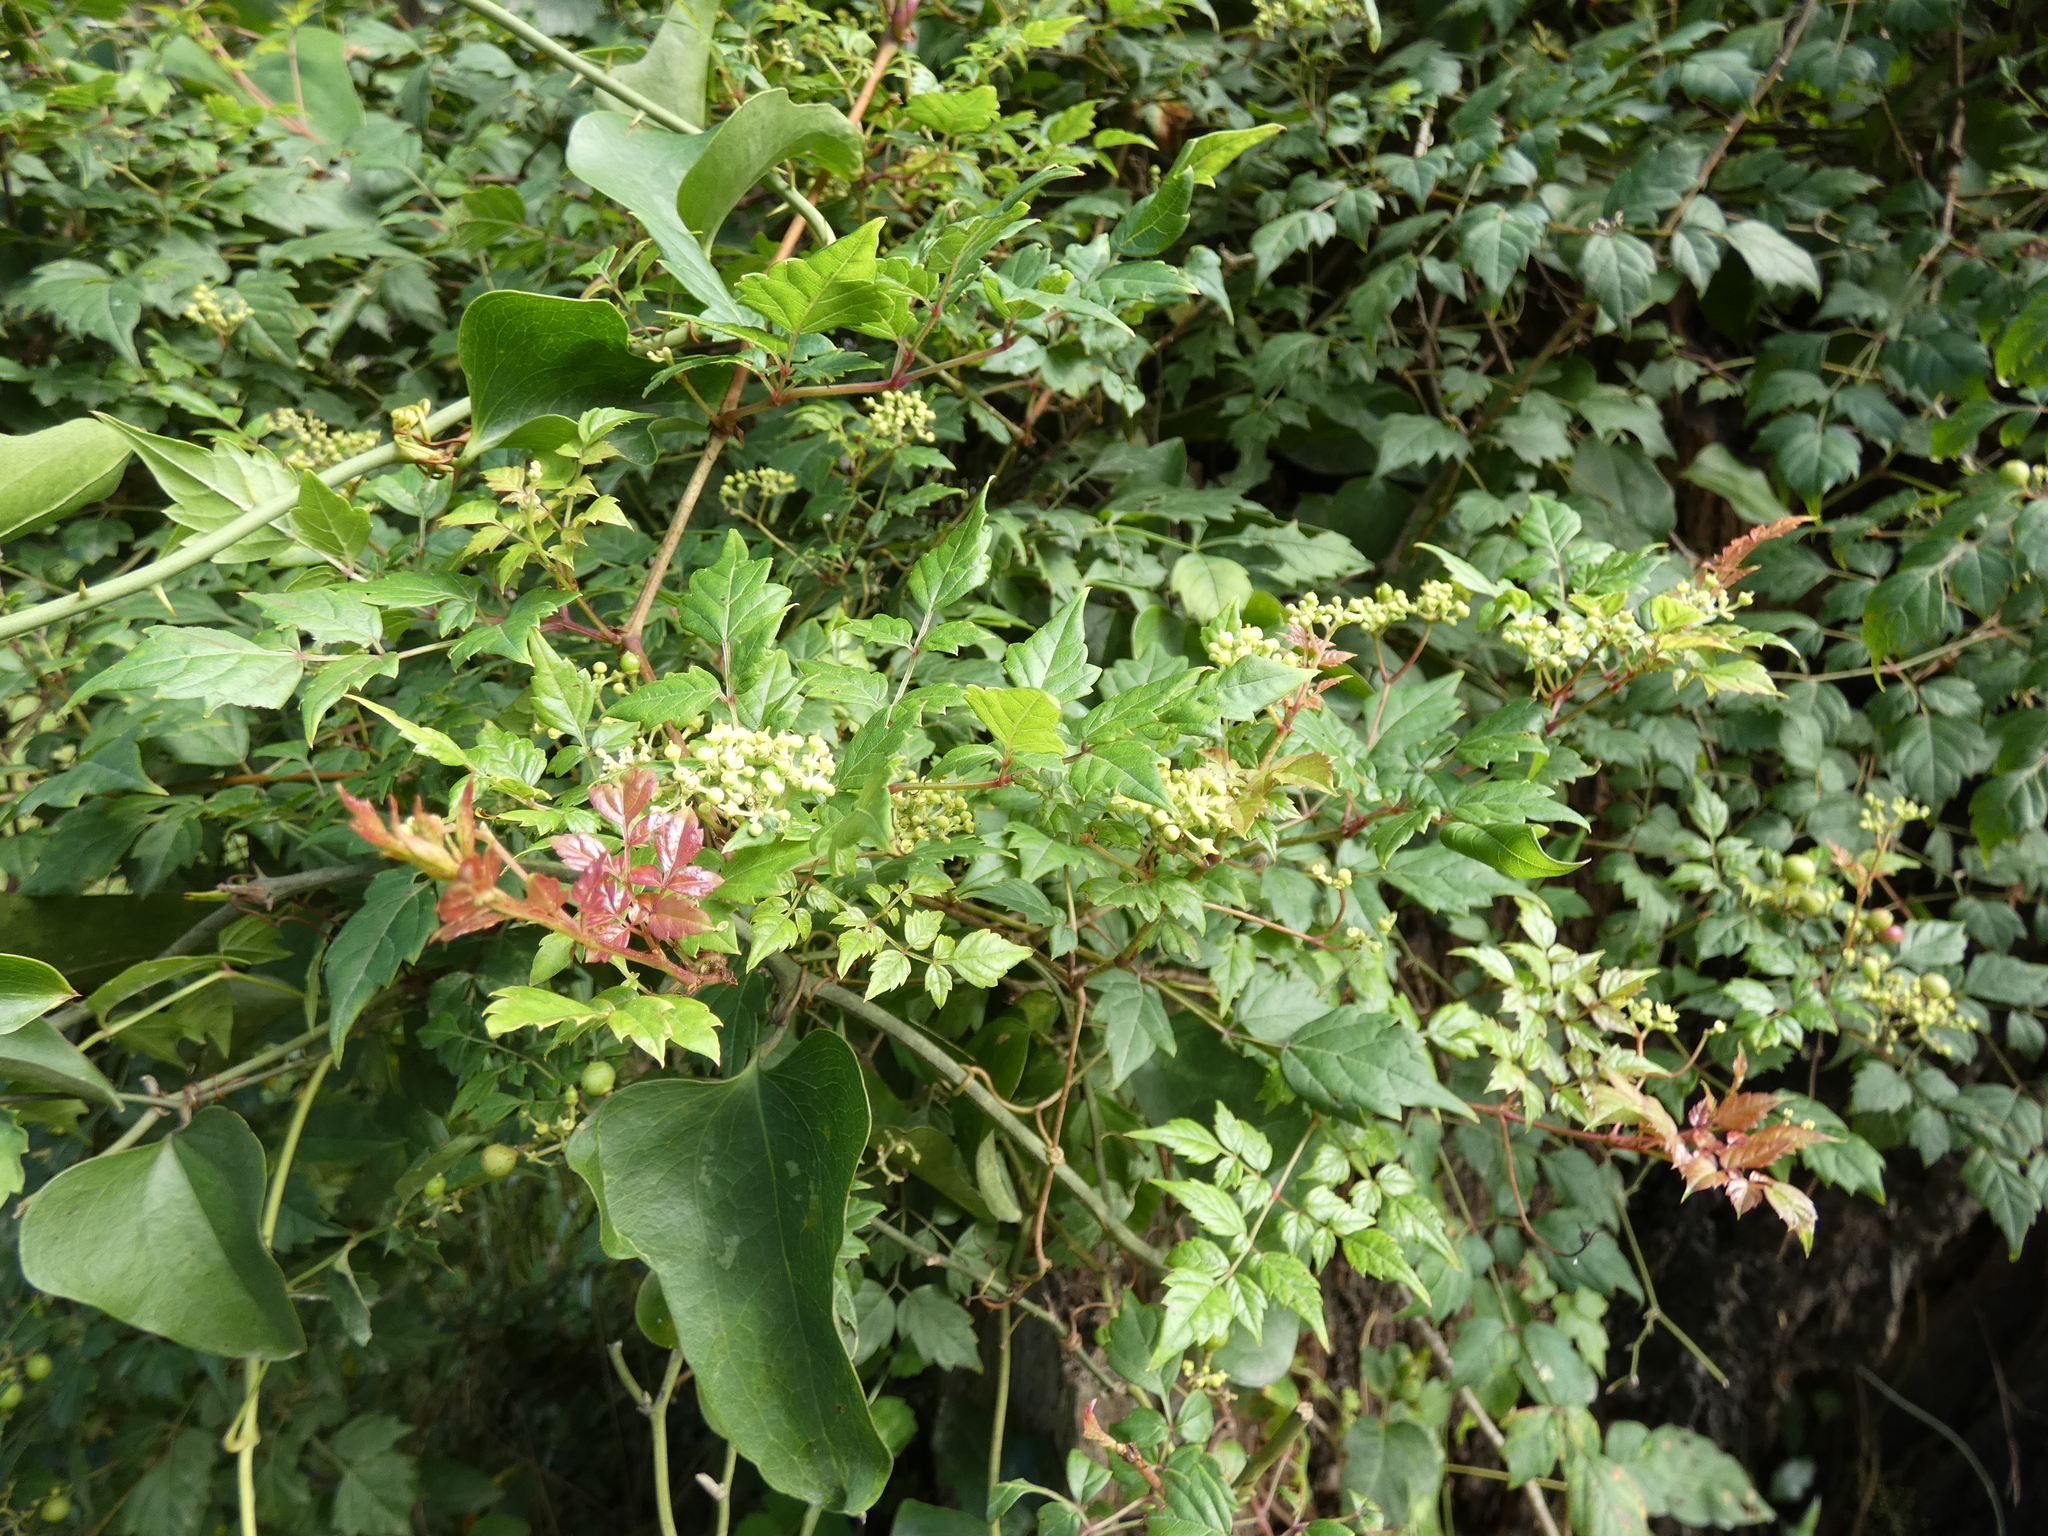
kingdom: Plantae
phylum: Tracheophyta
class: Magnoliopsida
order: Vitales
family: Vitaceae
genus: Nekemias
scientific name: Nekemias arborea
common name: Peppervine
